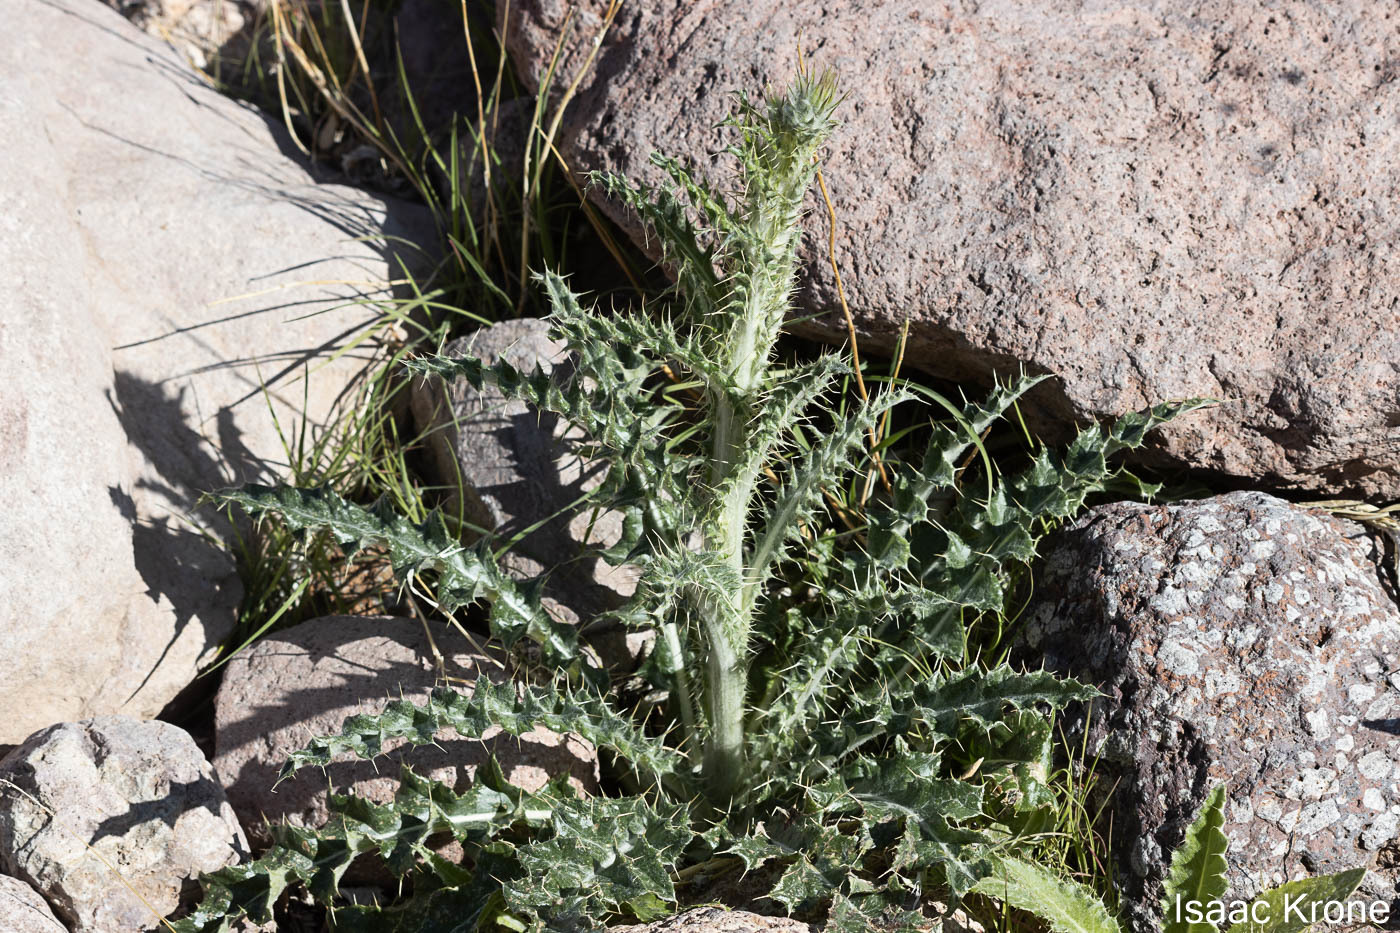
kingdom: Plantae
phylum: Tracheophyta
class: Magnoliopsida
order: Asterales
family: Asteraceae
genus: Cirsium
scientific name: Cirsium neomexicanum
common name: New mexico thistle
